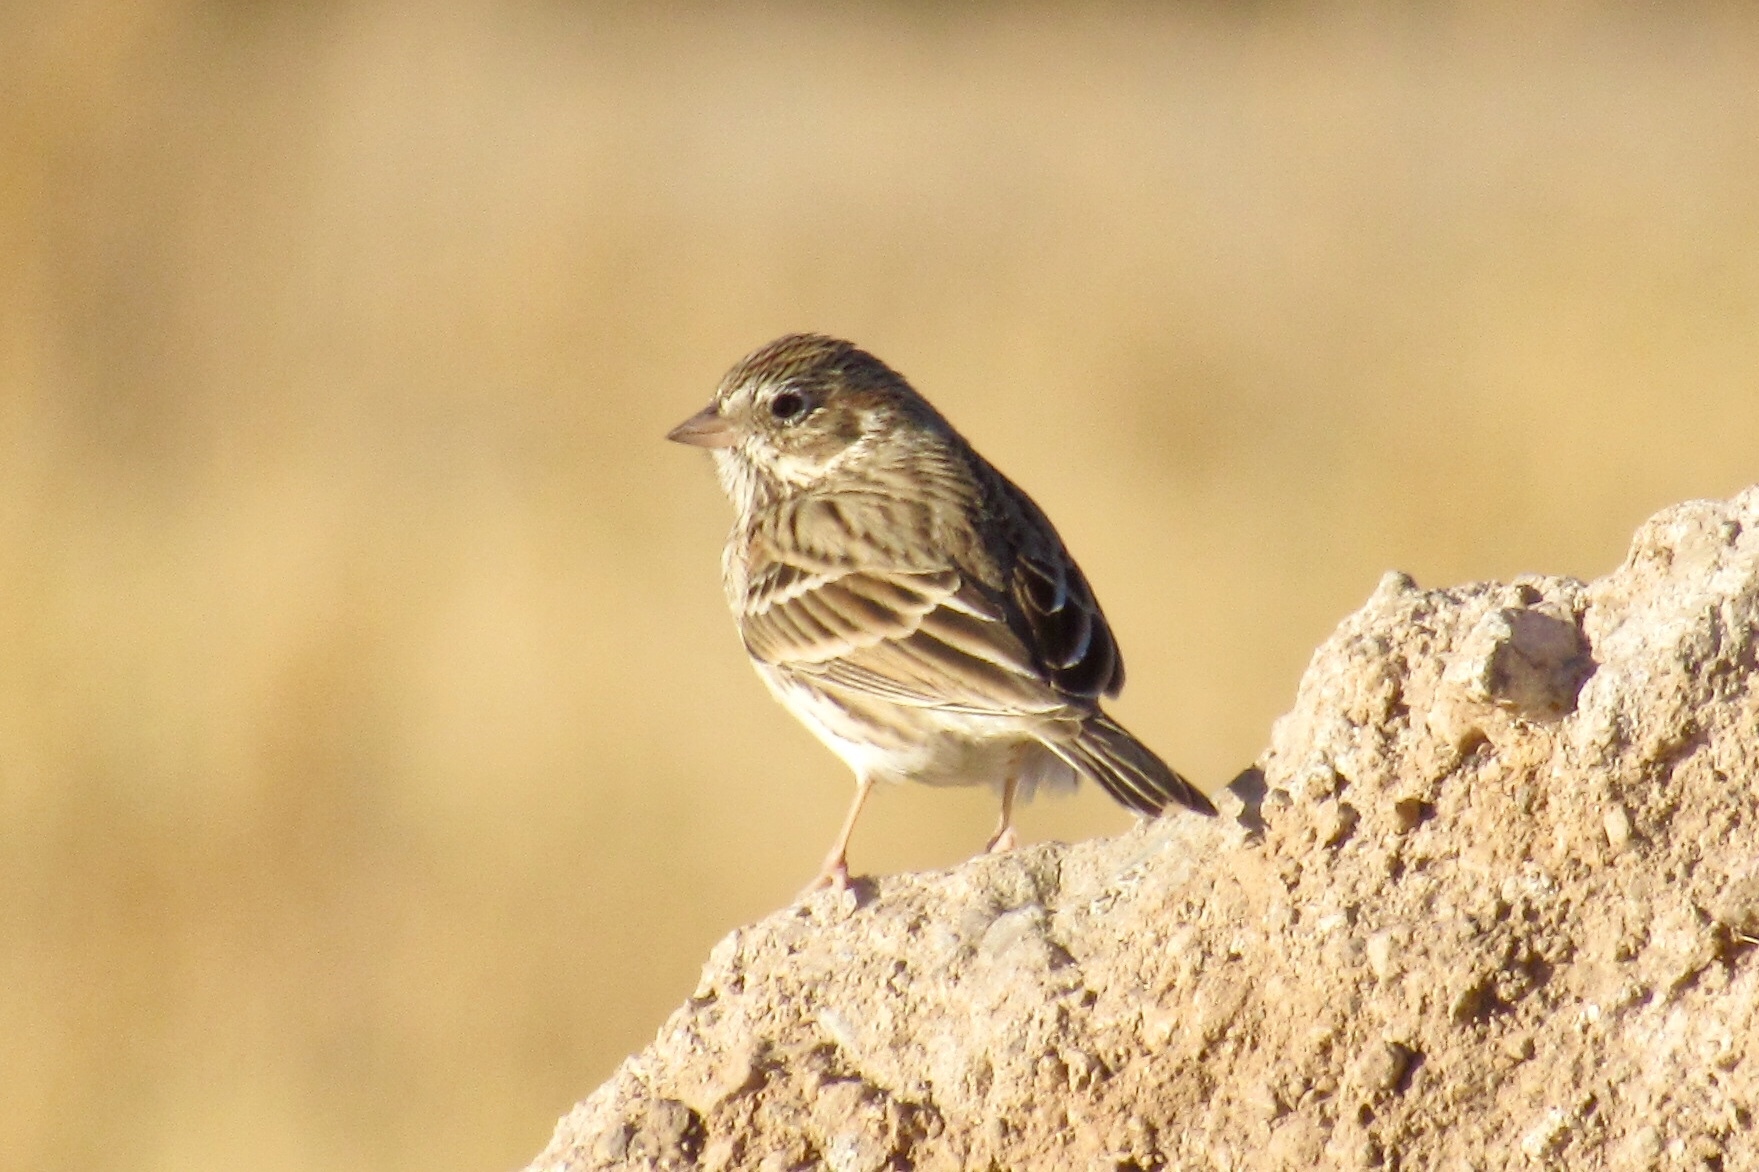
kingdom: Animalia
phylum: Chordata
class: Aves
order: Passeriformes
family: Passerellidae
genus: Pooecetes
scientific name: Pooecetes gramineus
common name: Vesper sparrow
